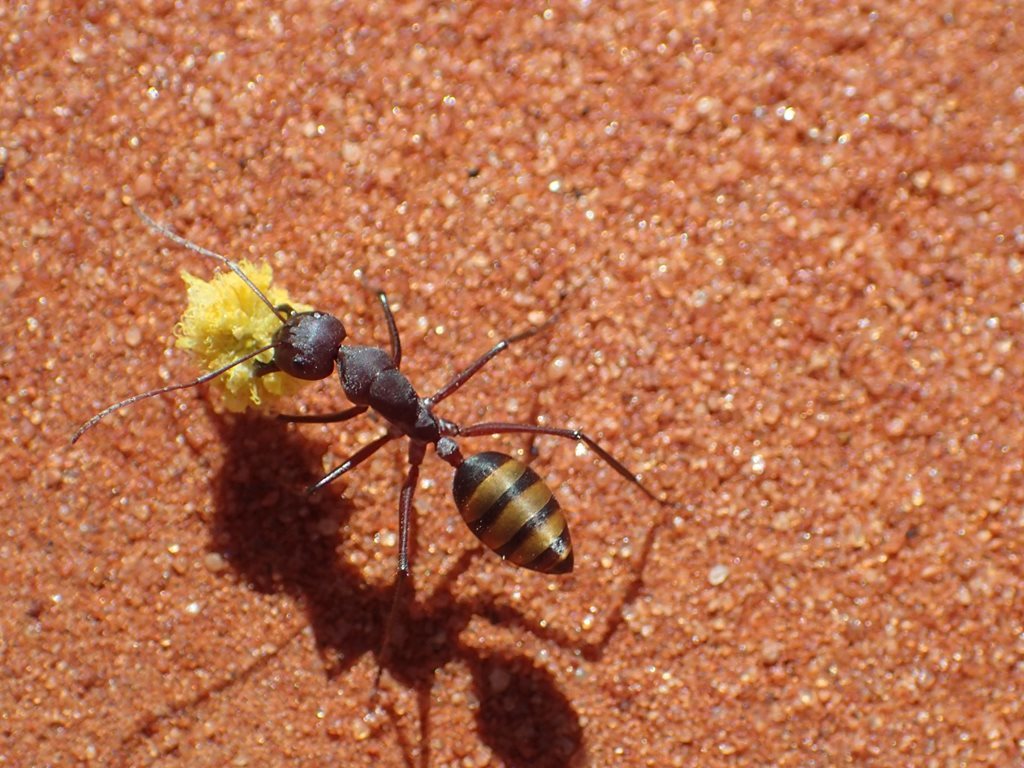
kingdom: Animalia
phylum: Arthropoda
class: Insecta
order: Hymenoptera
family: Formicidae
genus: Camponotus
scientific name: Camponotus aurocinctus
